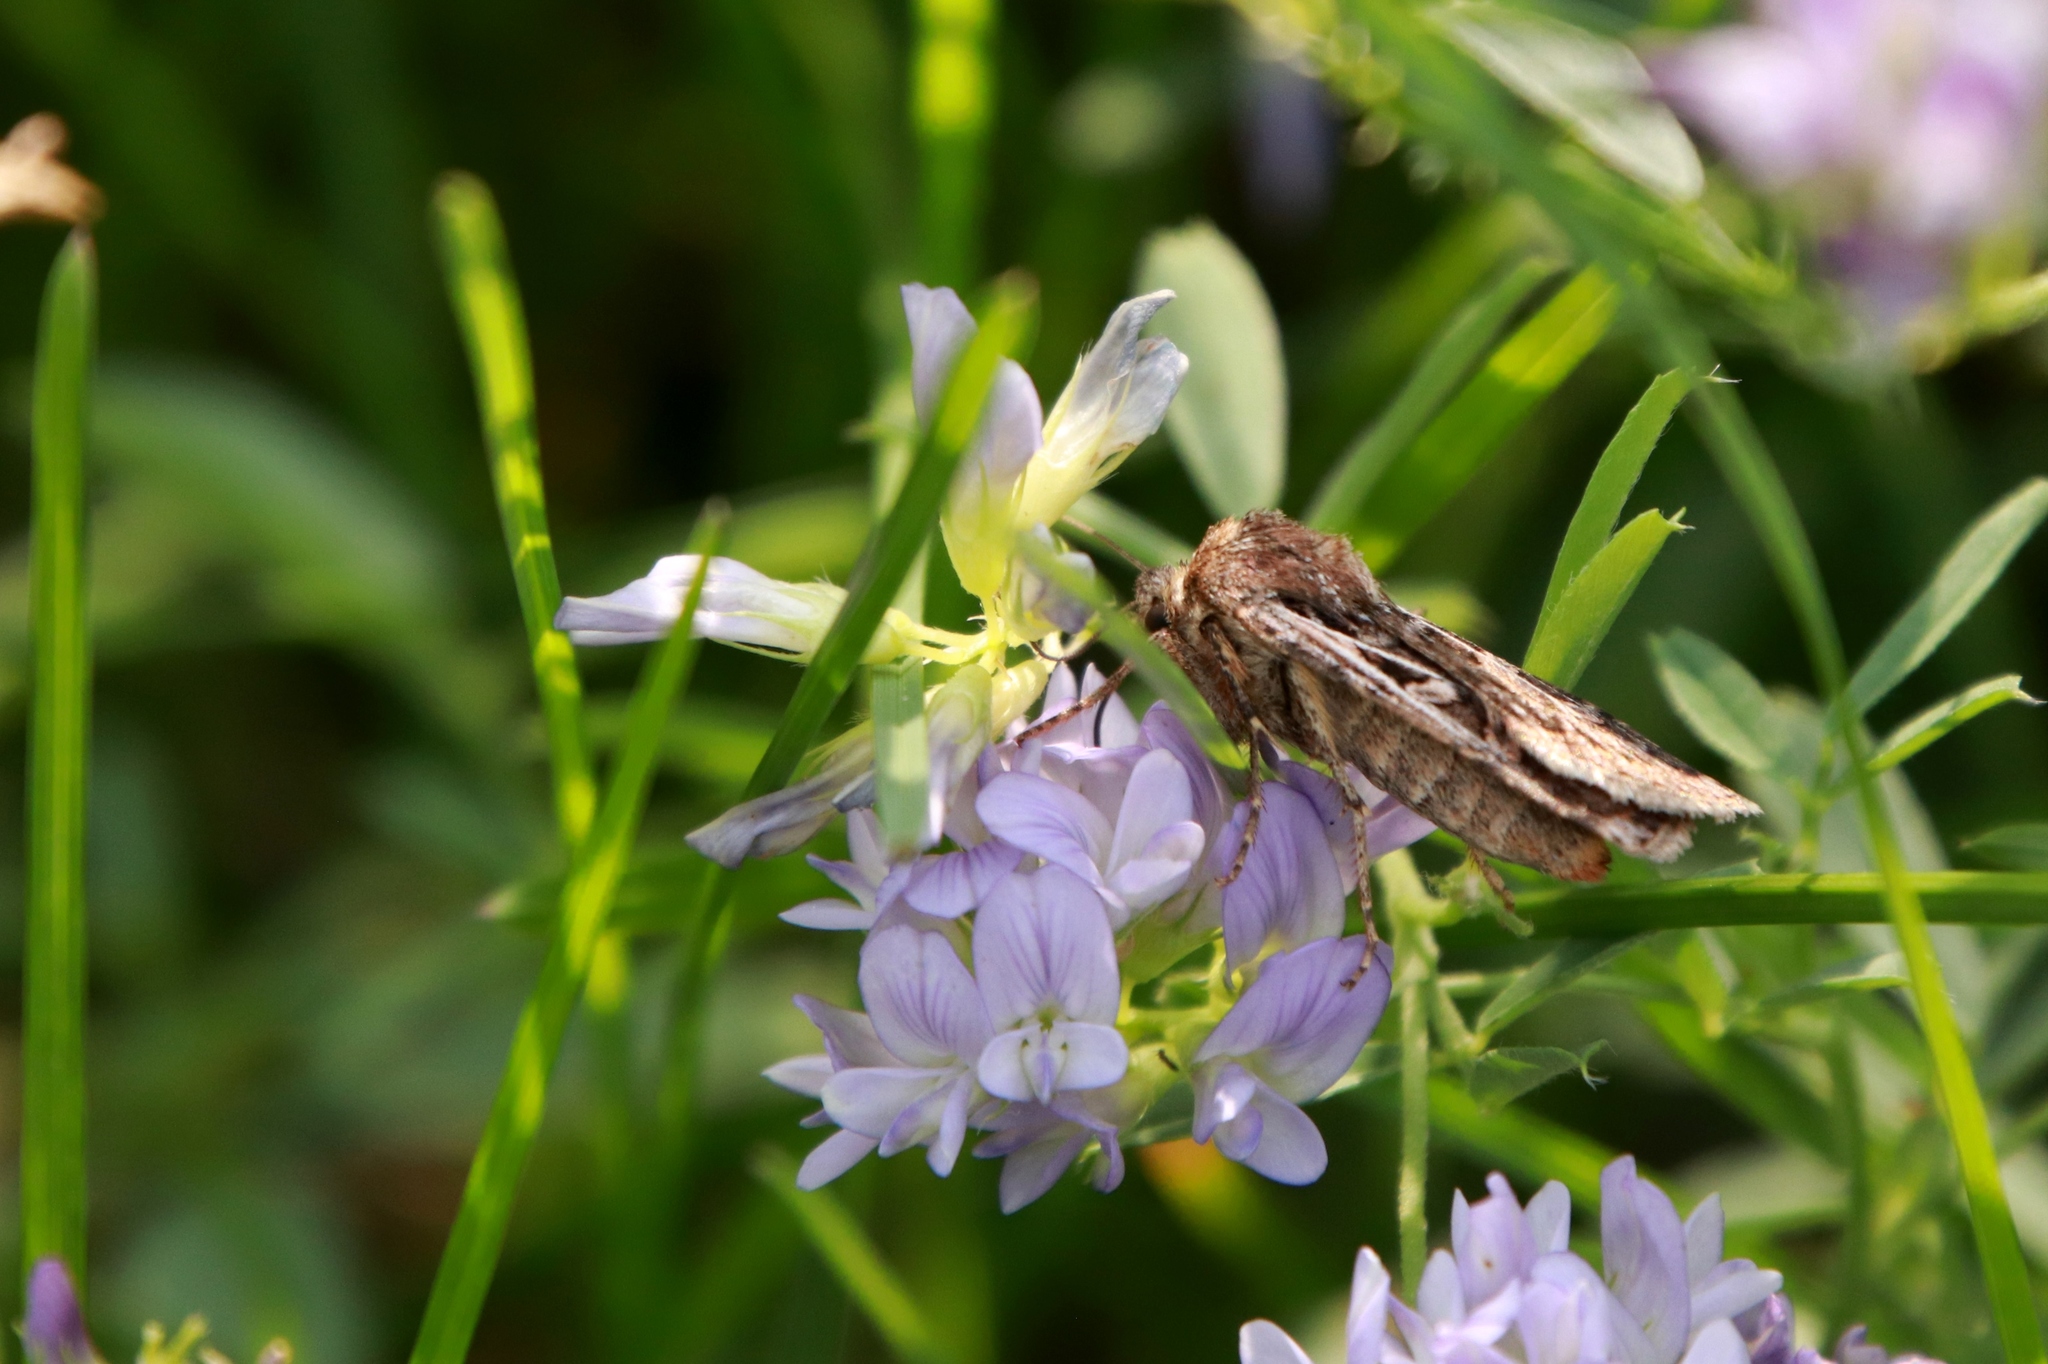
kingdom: Animalia
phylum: Arthropoda
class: Insecta
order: Lepidoptera
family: Noctuidae
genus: Euxoa
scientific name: Euxoa divergens
